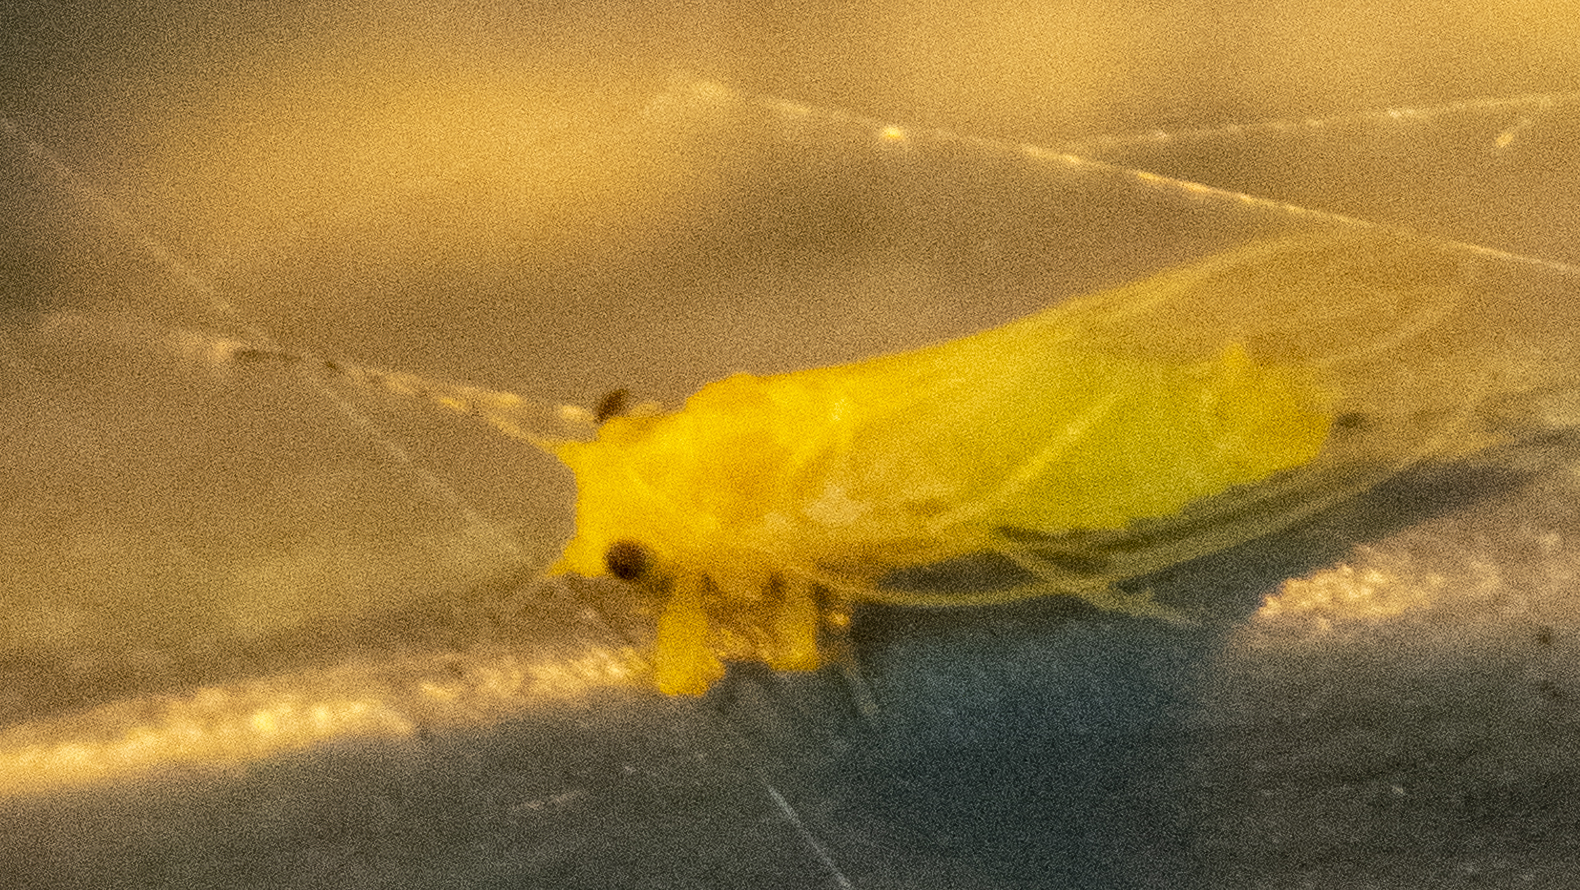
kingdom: Animalia
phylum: Arthropoda
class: Insecta
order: Hemiptera
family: Psyllidae
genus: Cacopsylla
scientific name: Cacopsylla annulata
